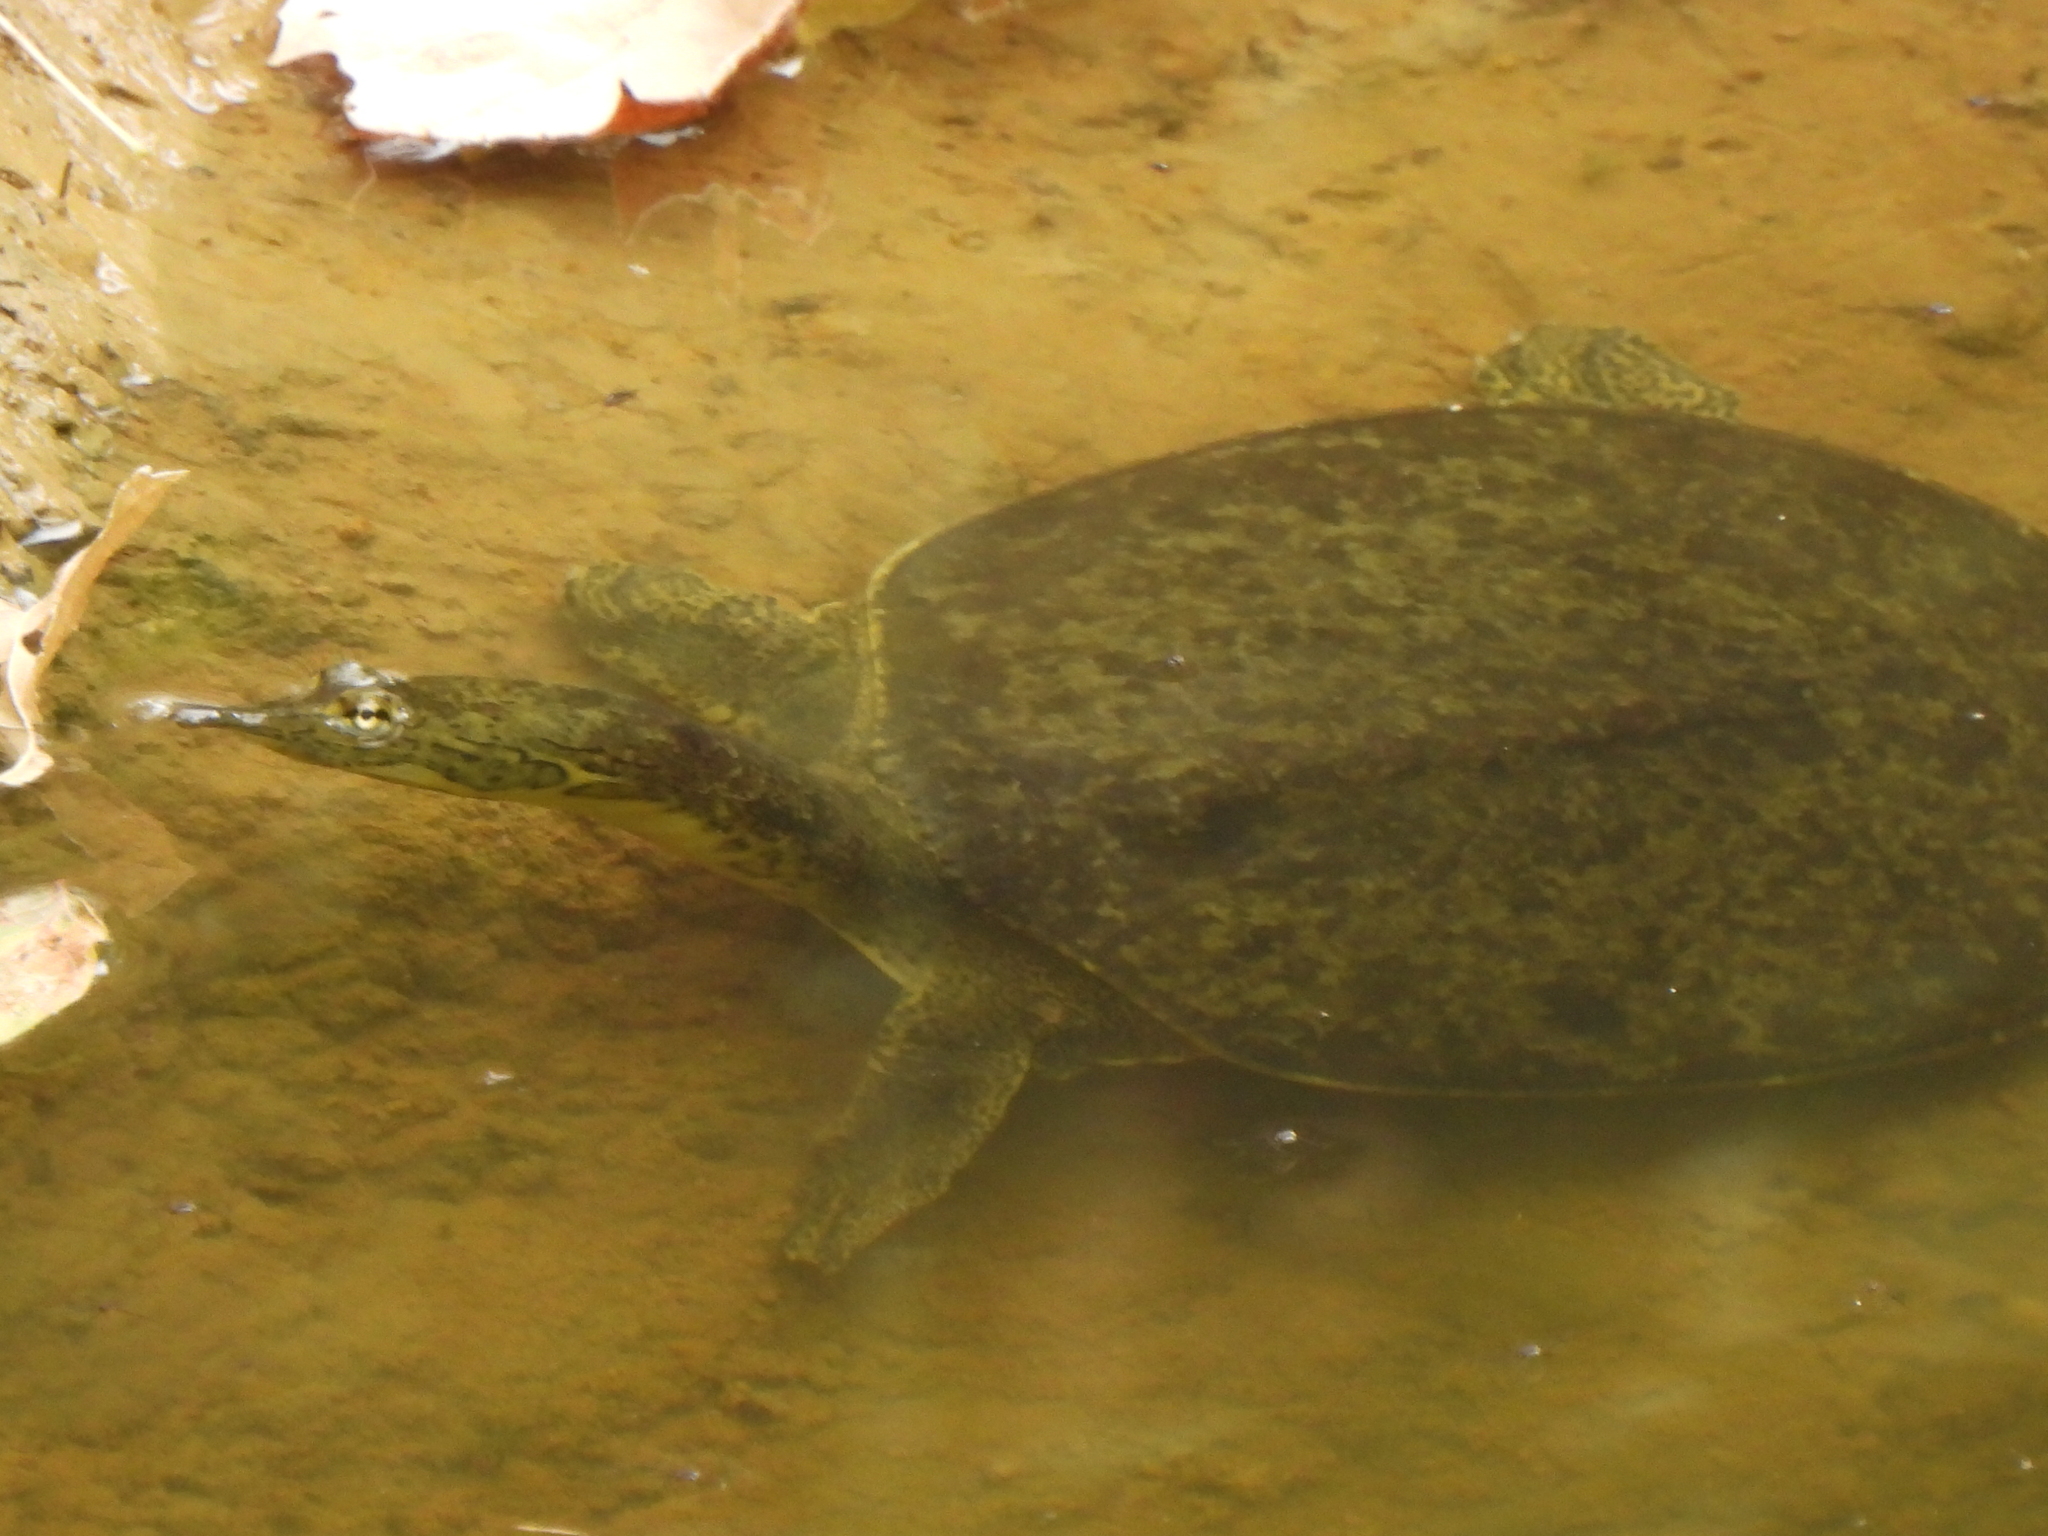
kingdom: Animalia
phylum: Chordata
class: Testudines
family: Trionychidae
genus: Apalone
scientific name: Apalone spinifera
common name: Spiny softshell turtle
